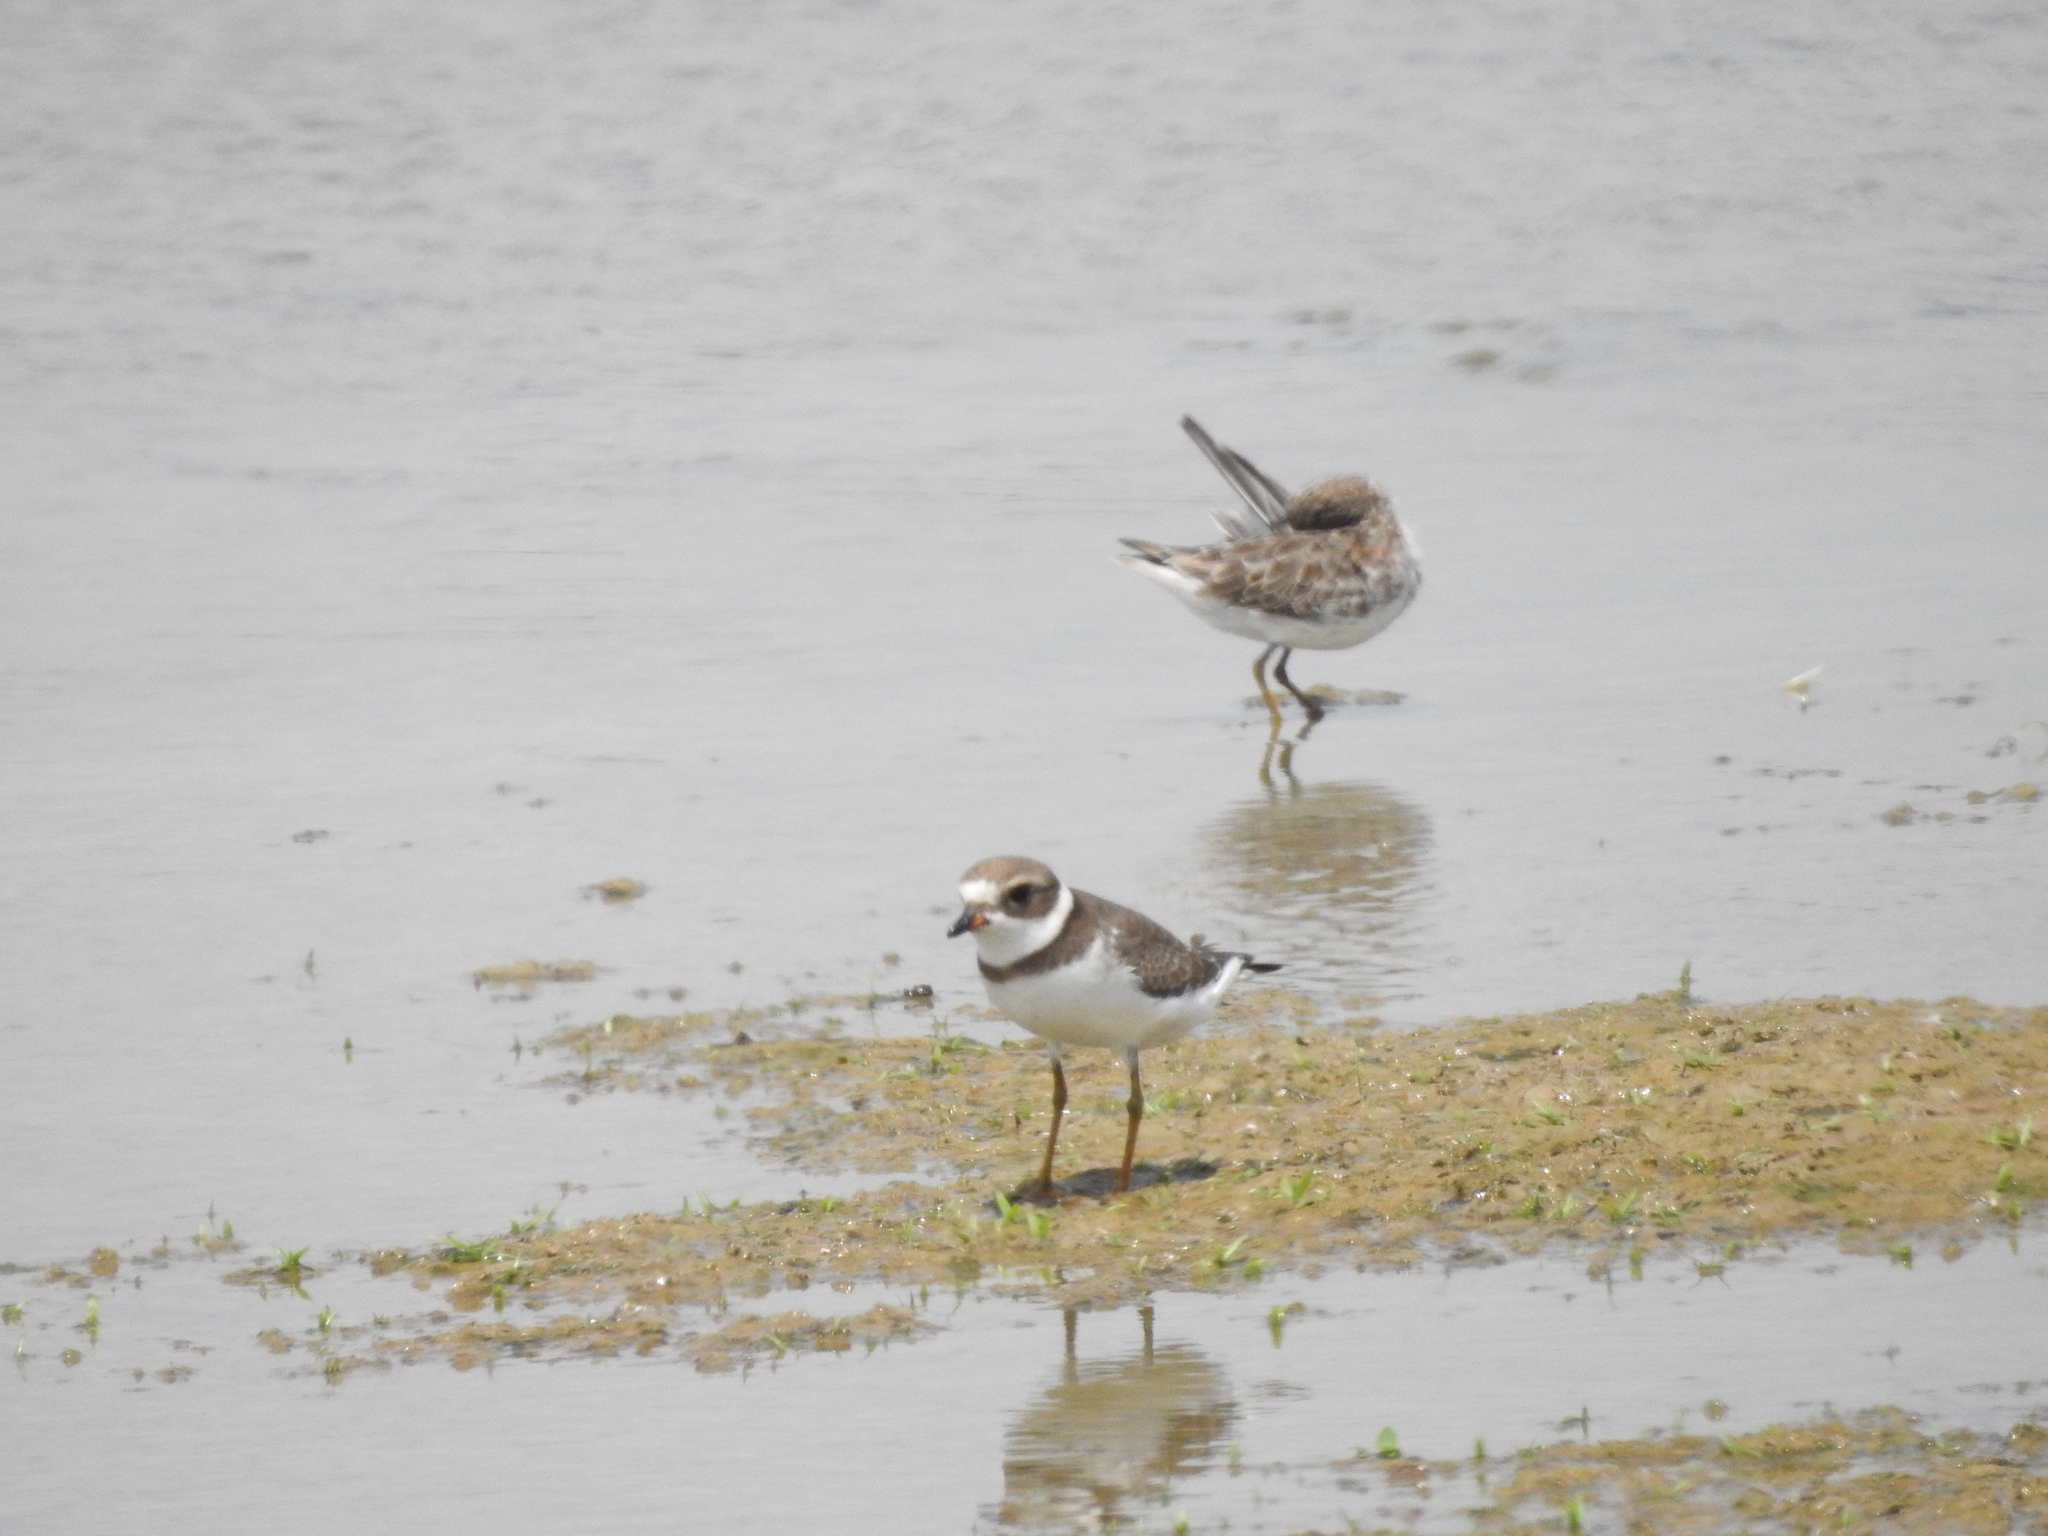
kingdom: Animalia
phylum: Chordata
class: Aves
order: Charadriiformes
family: Charadriidae
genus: Charadrius
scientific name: Charadrius semipalmatus
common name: Semipalmated plover
